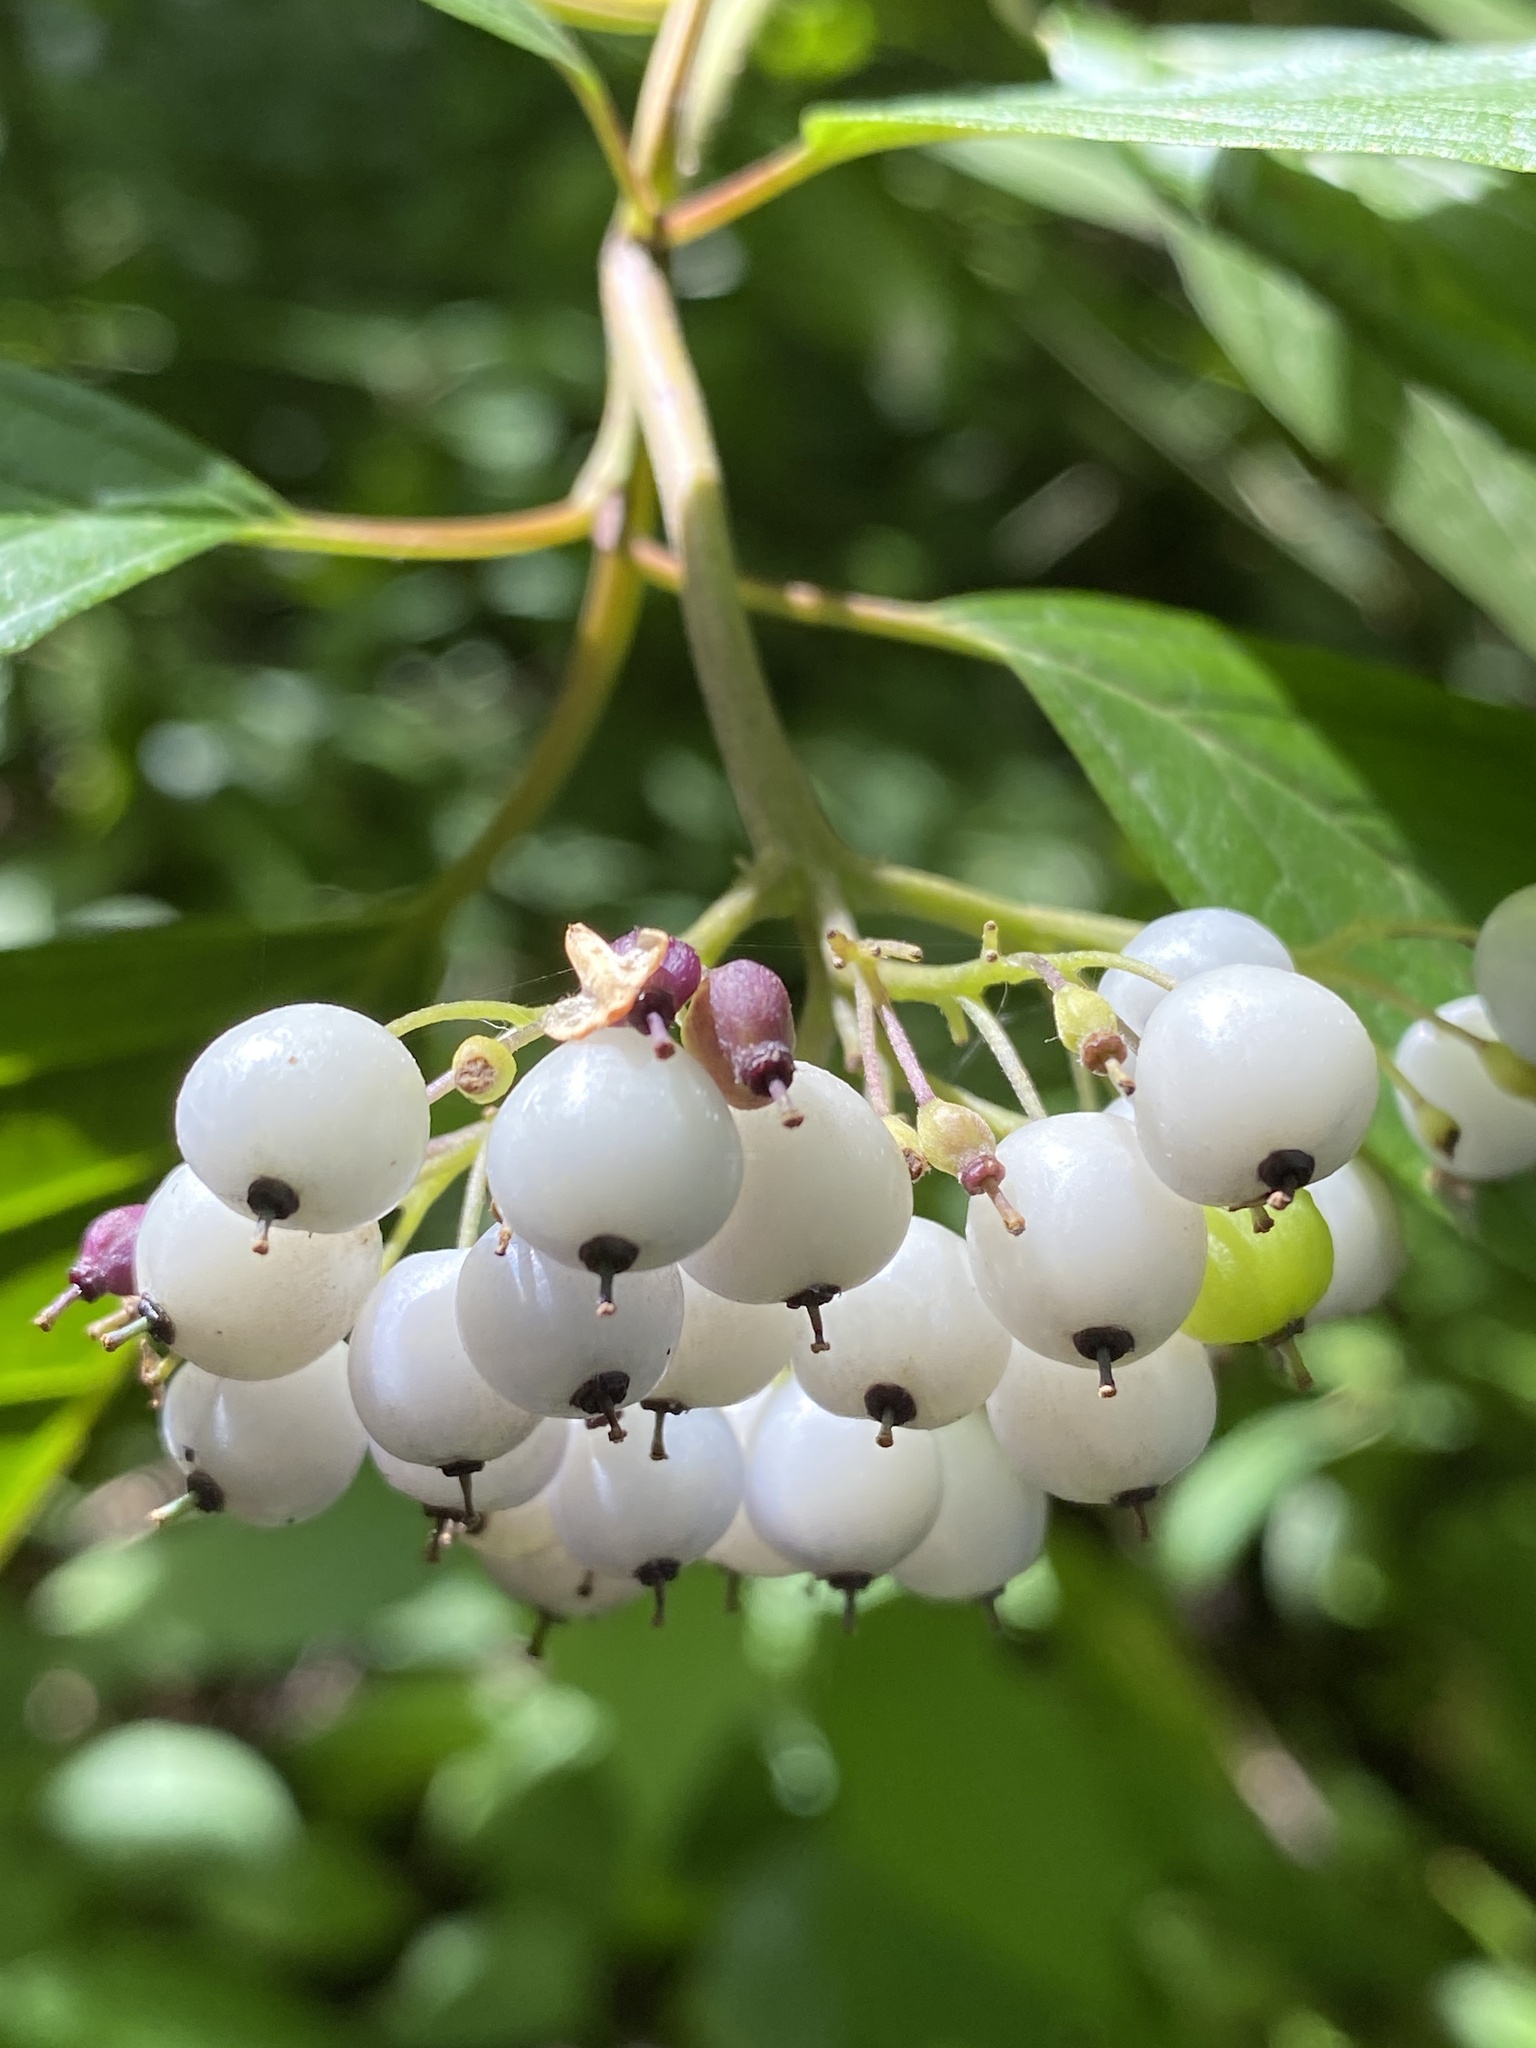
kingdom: Plantae
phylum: Tracheophyta
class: Magnoliopsida
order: Cornales
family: Cornaceae
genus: Cornus
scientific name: Cornus alba
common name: White dogwood
